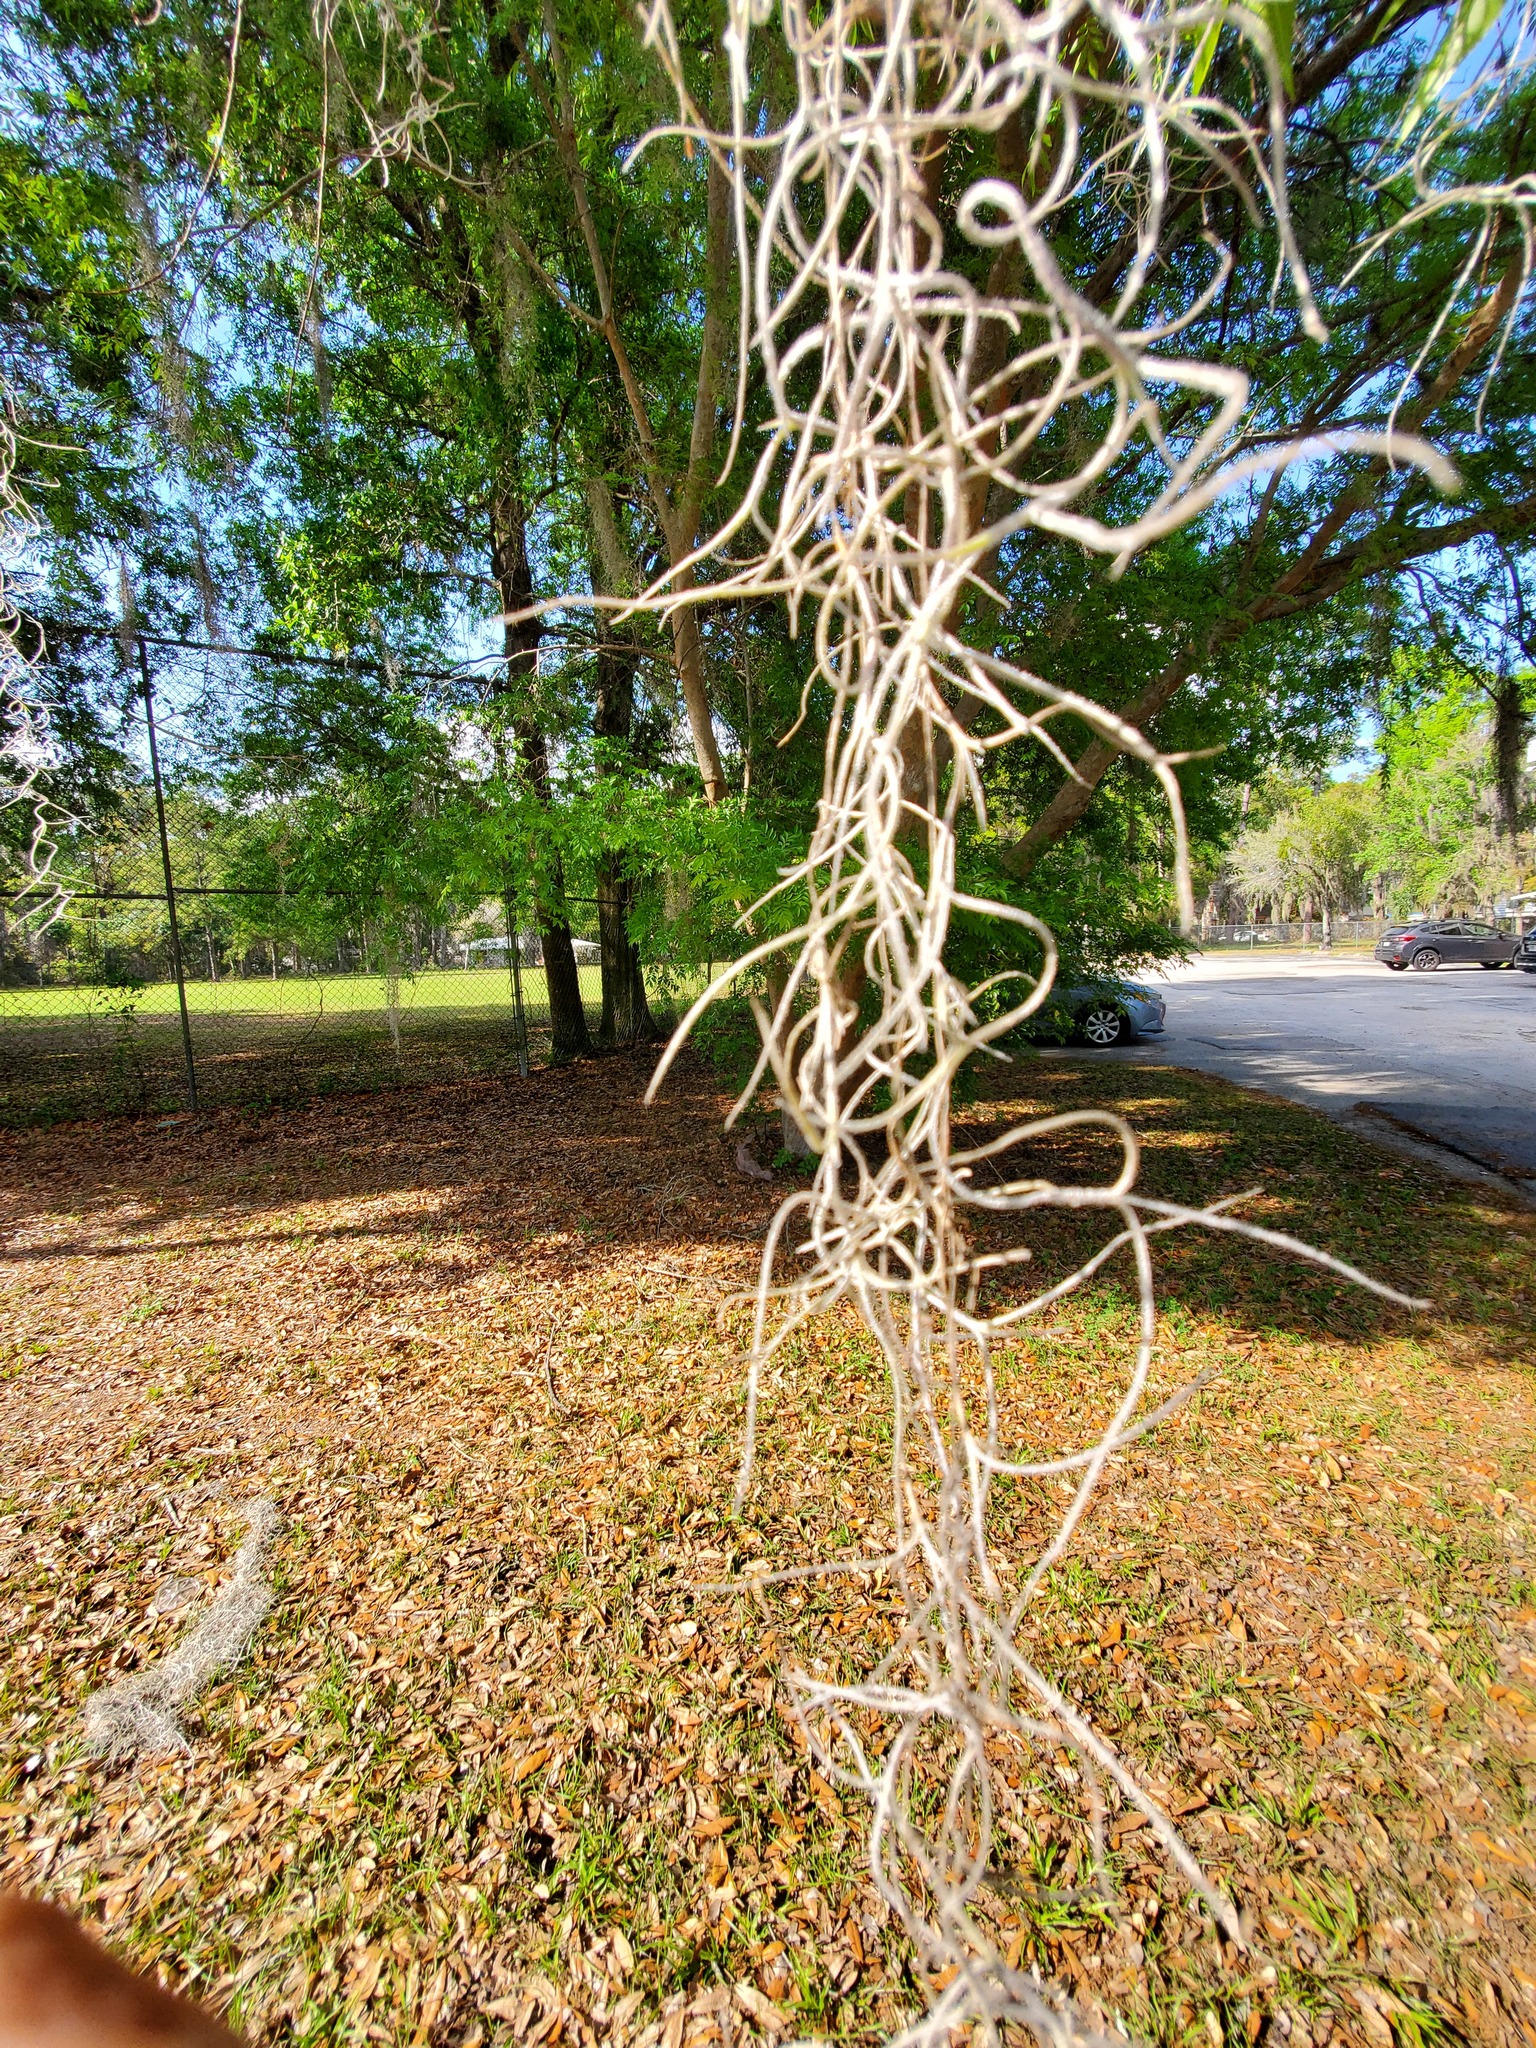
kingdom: Plantae
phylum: Tracheophyta
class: Liliopsida
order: Poales
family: Bromeliaceae
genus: Tillandsia
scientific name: Tillandsia usneoides
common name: Spanish moss
